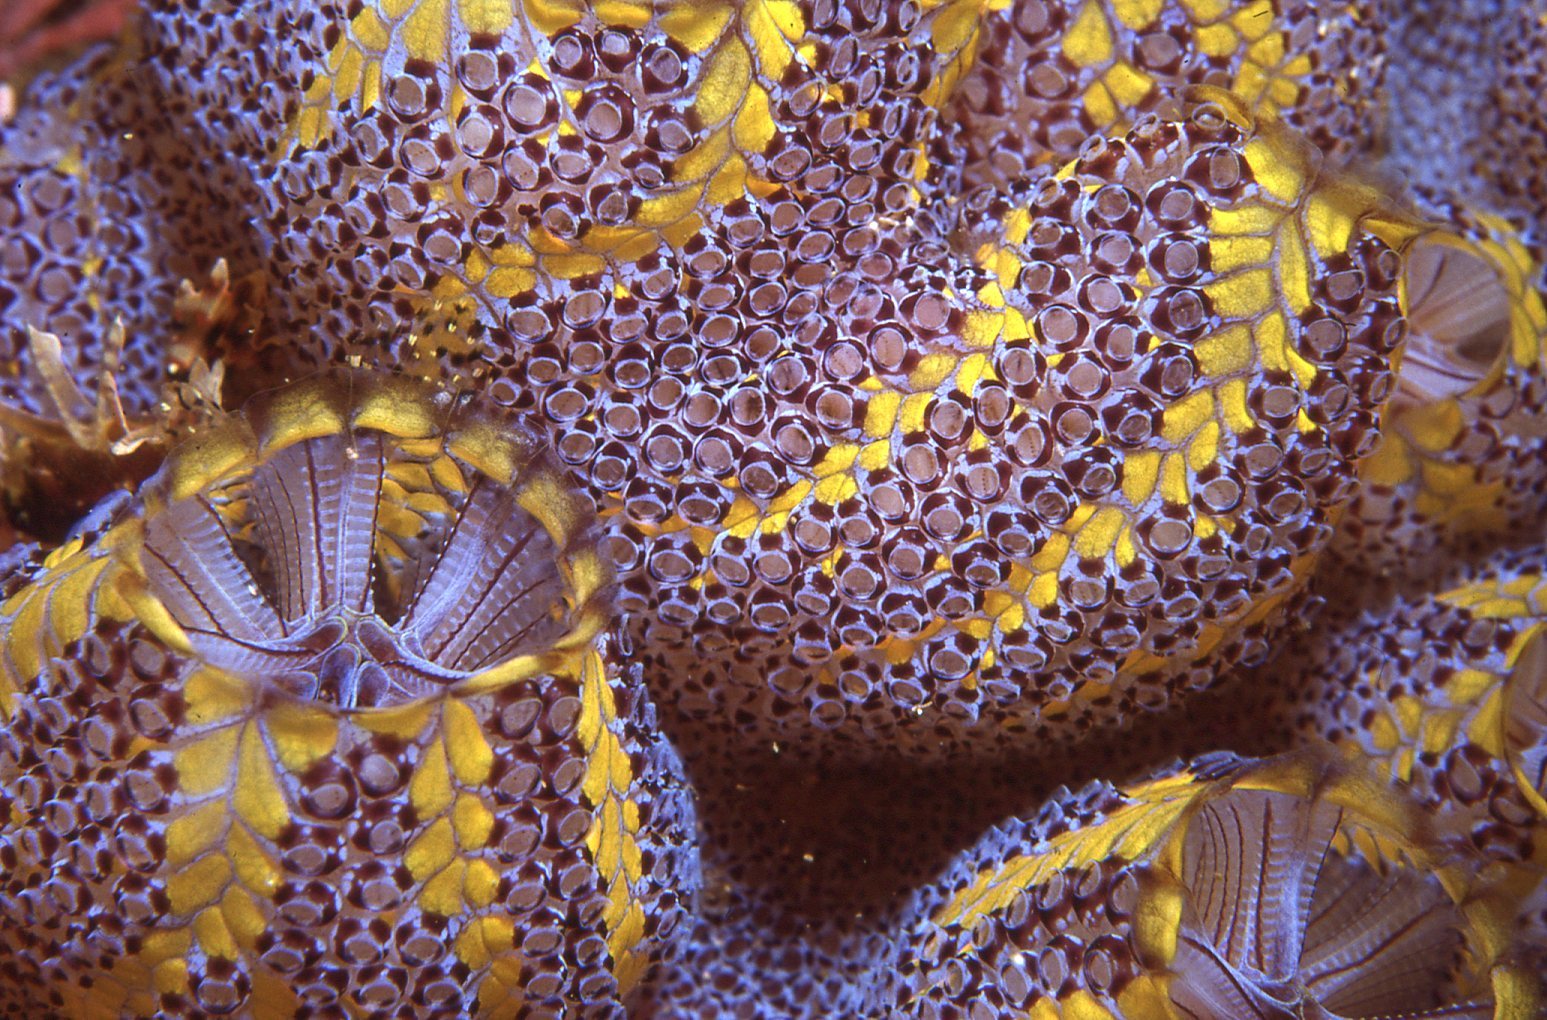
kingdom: Animalia
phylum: Chordata
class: Ascidiacea
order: Stolidobranchia
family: Styelidae
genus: Botrylloides
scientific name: Botrylloides magnicoecus
